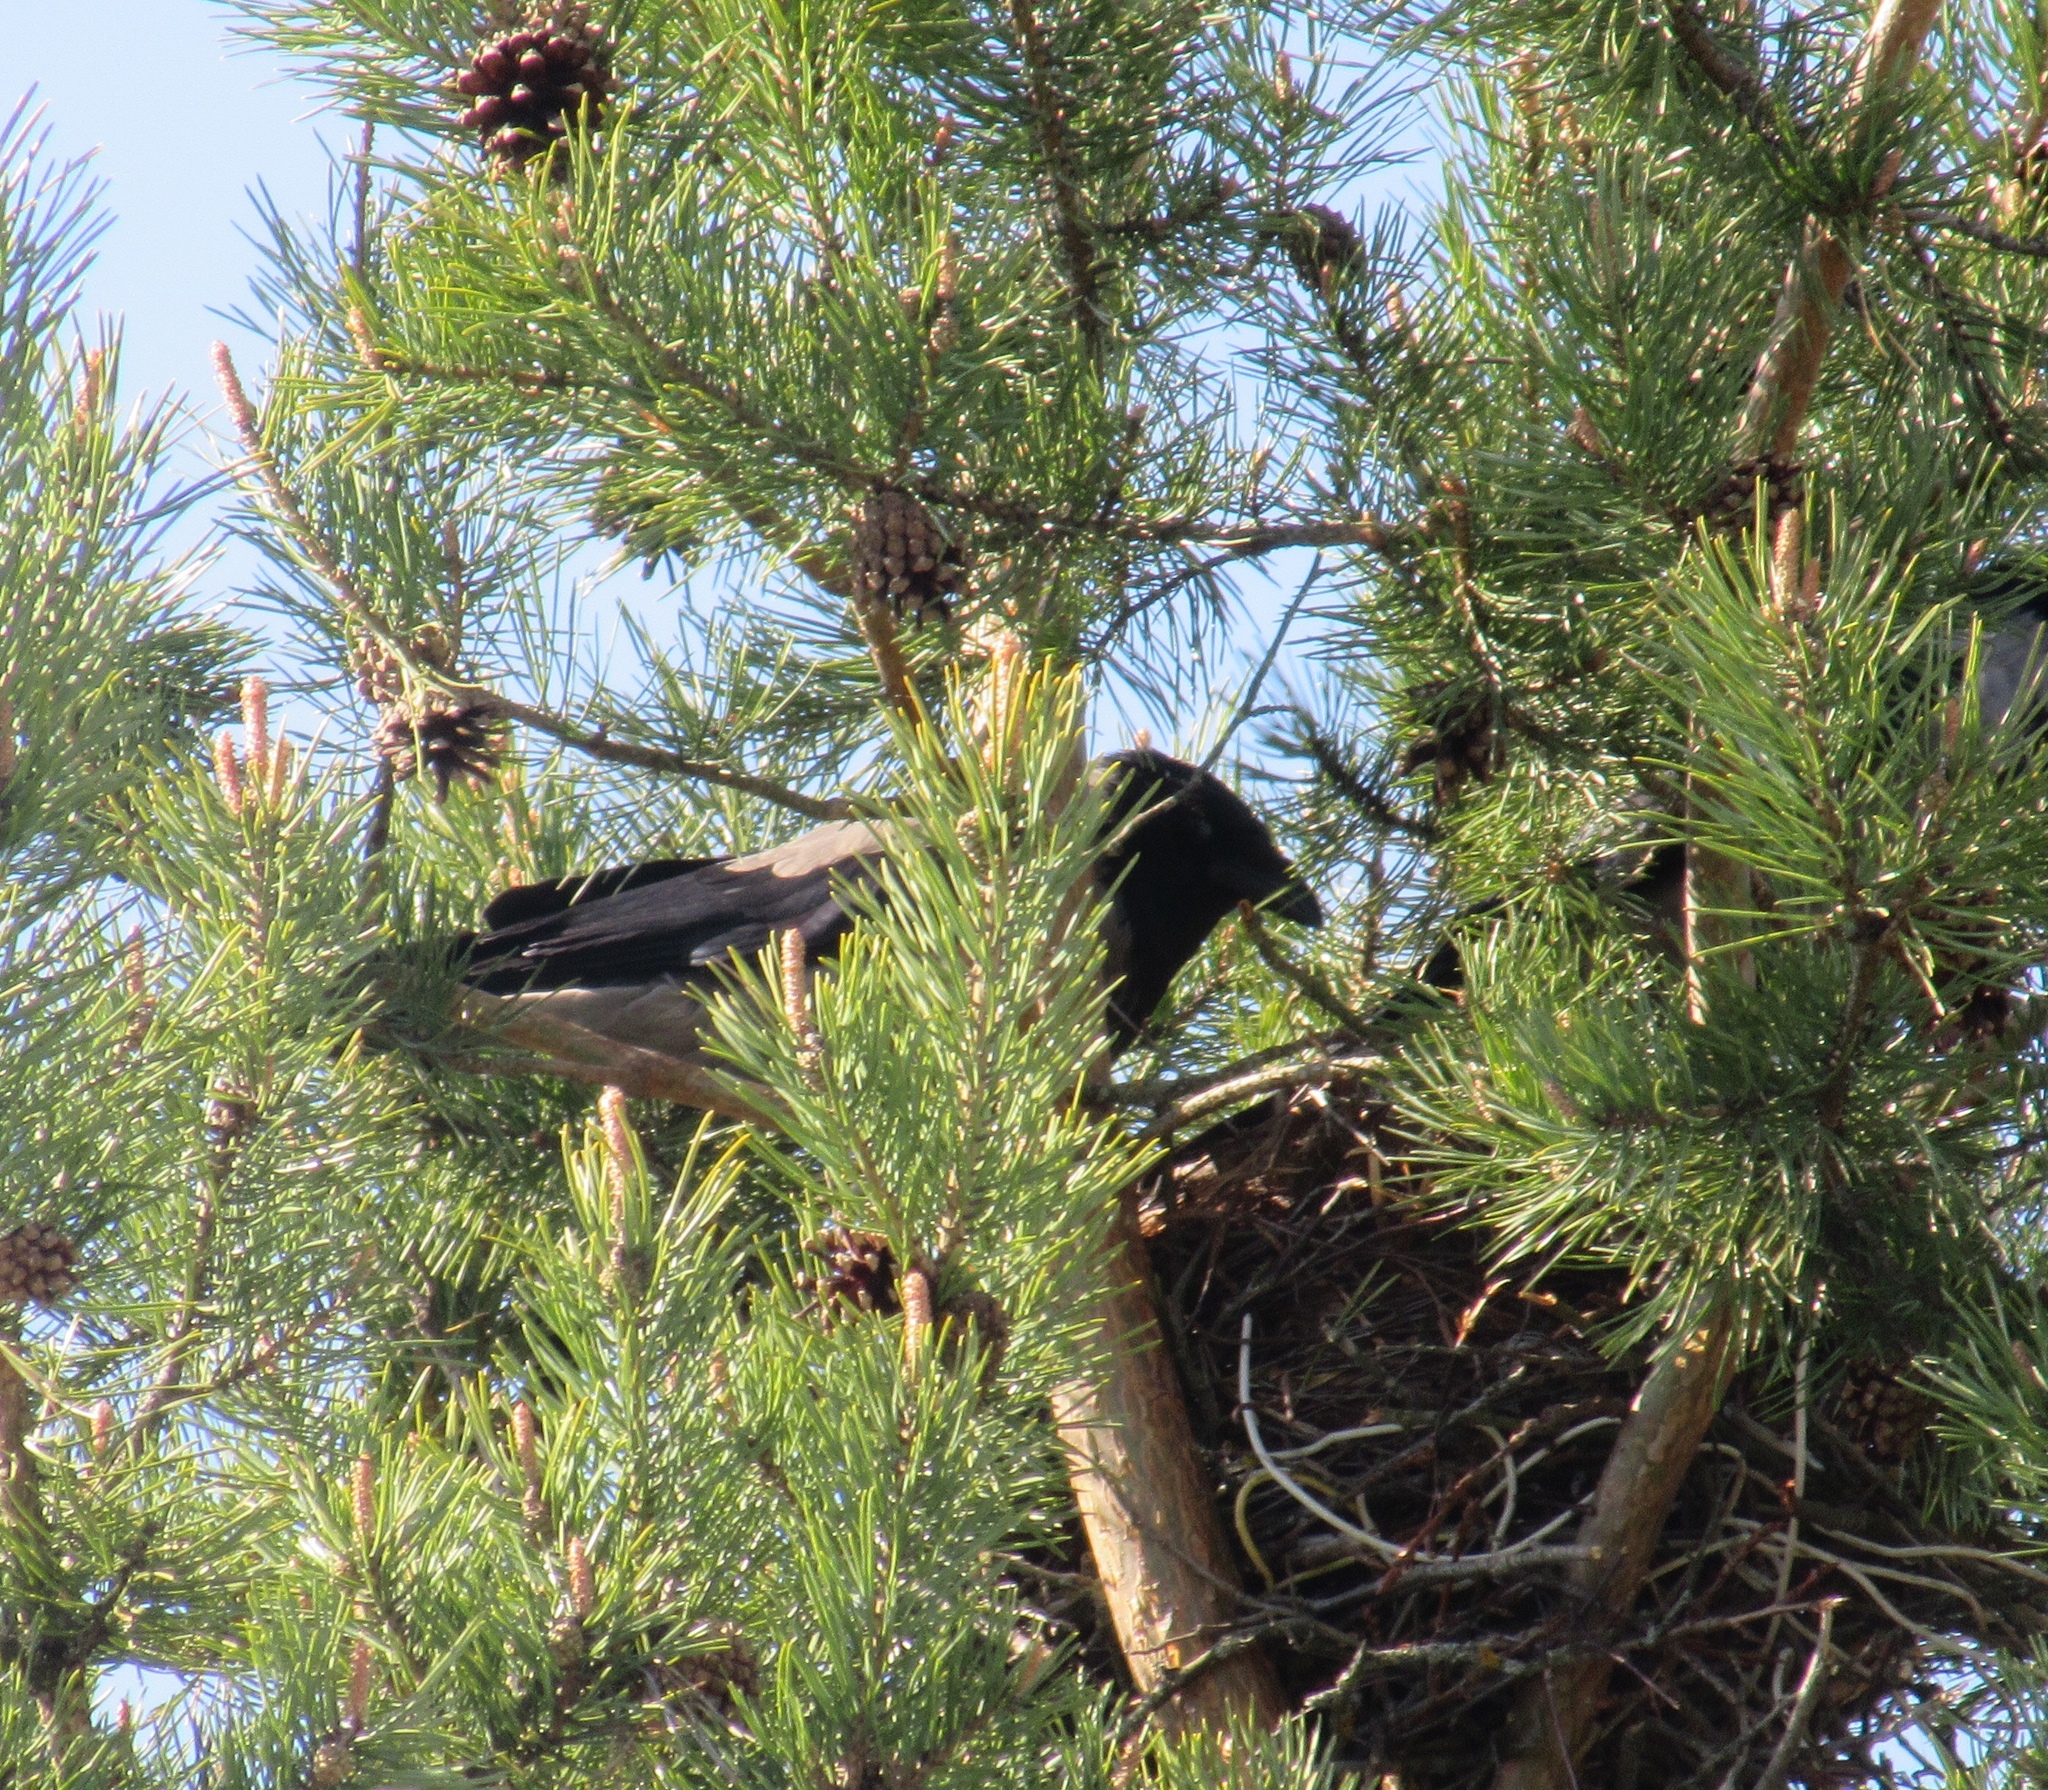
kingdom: Animalia
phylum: Chordata
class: Aves
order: Passeriformes
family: Corvidae
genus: Corvus
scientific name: Corvus cornix
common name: Hooded crow
